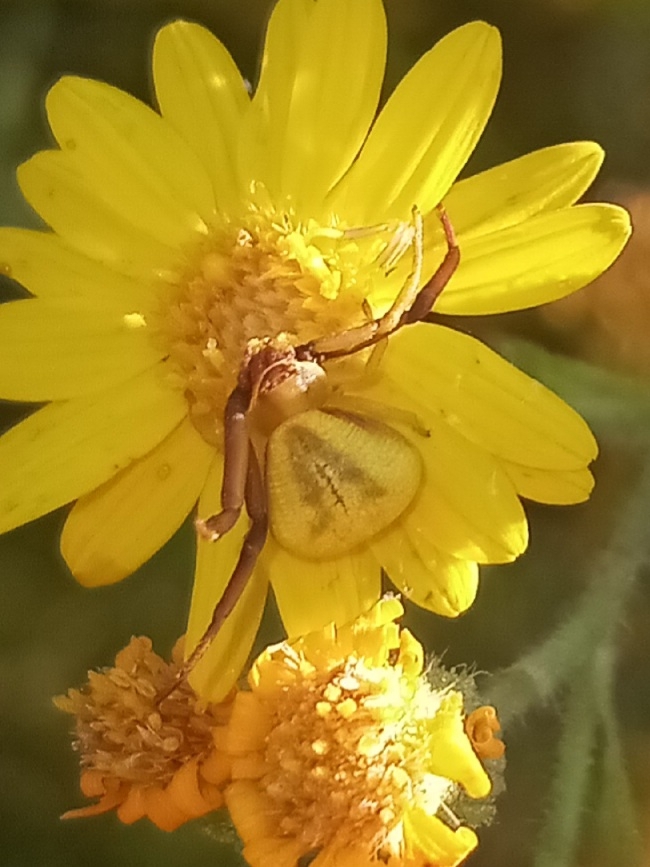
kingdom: Animalia
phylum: Arthropoda
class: Arachnida
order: Araneae
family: Thomisidae
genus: Misumenoides
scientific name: Misumenoides formosipes
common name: White-banded crab spider
